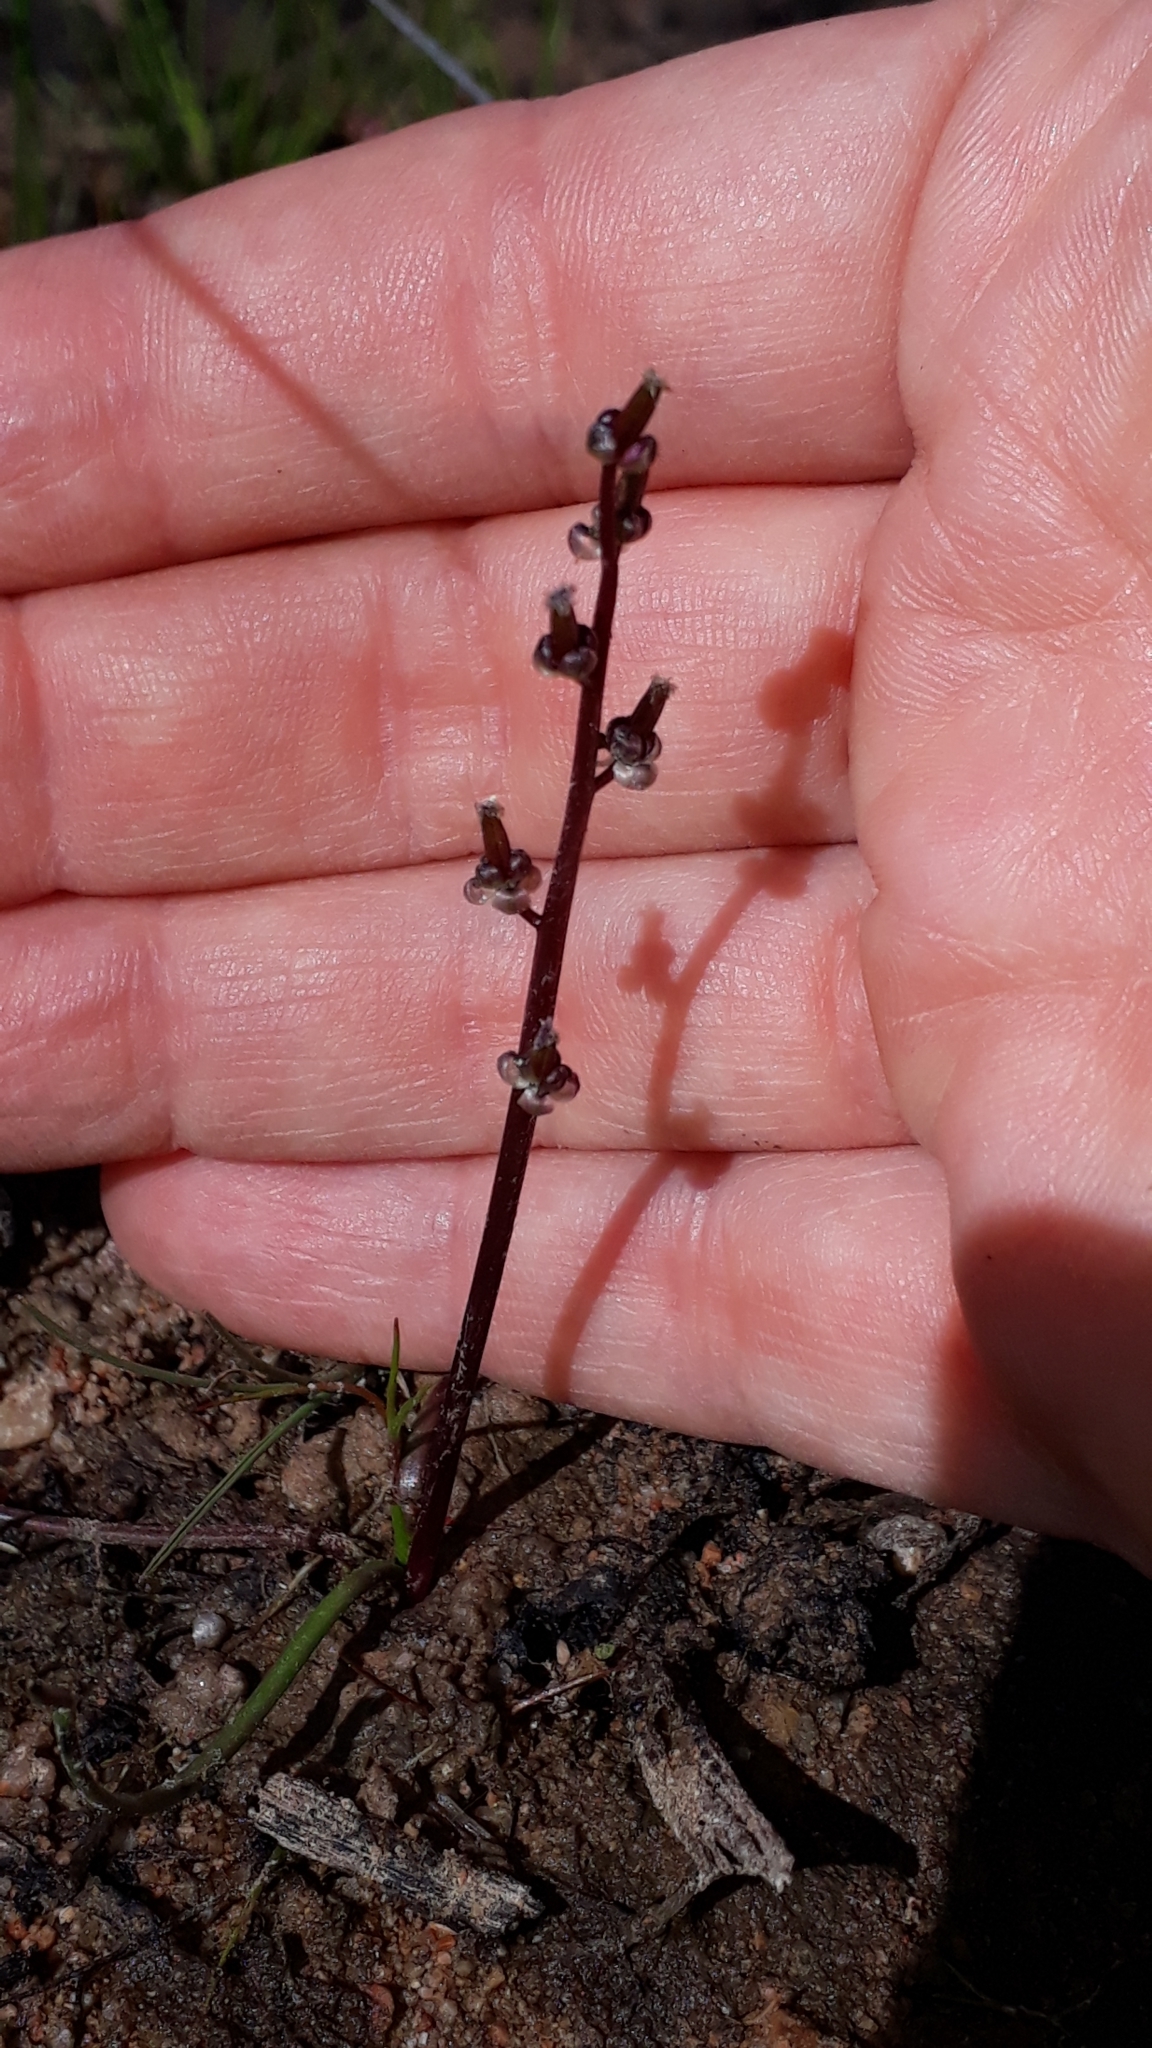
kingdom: Plantae
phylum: Tracheophyta
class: Liliopsida
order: Alismatales
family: Juncaginaceae
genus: Triglochin
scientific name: Triglochin barrelieri
